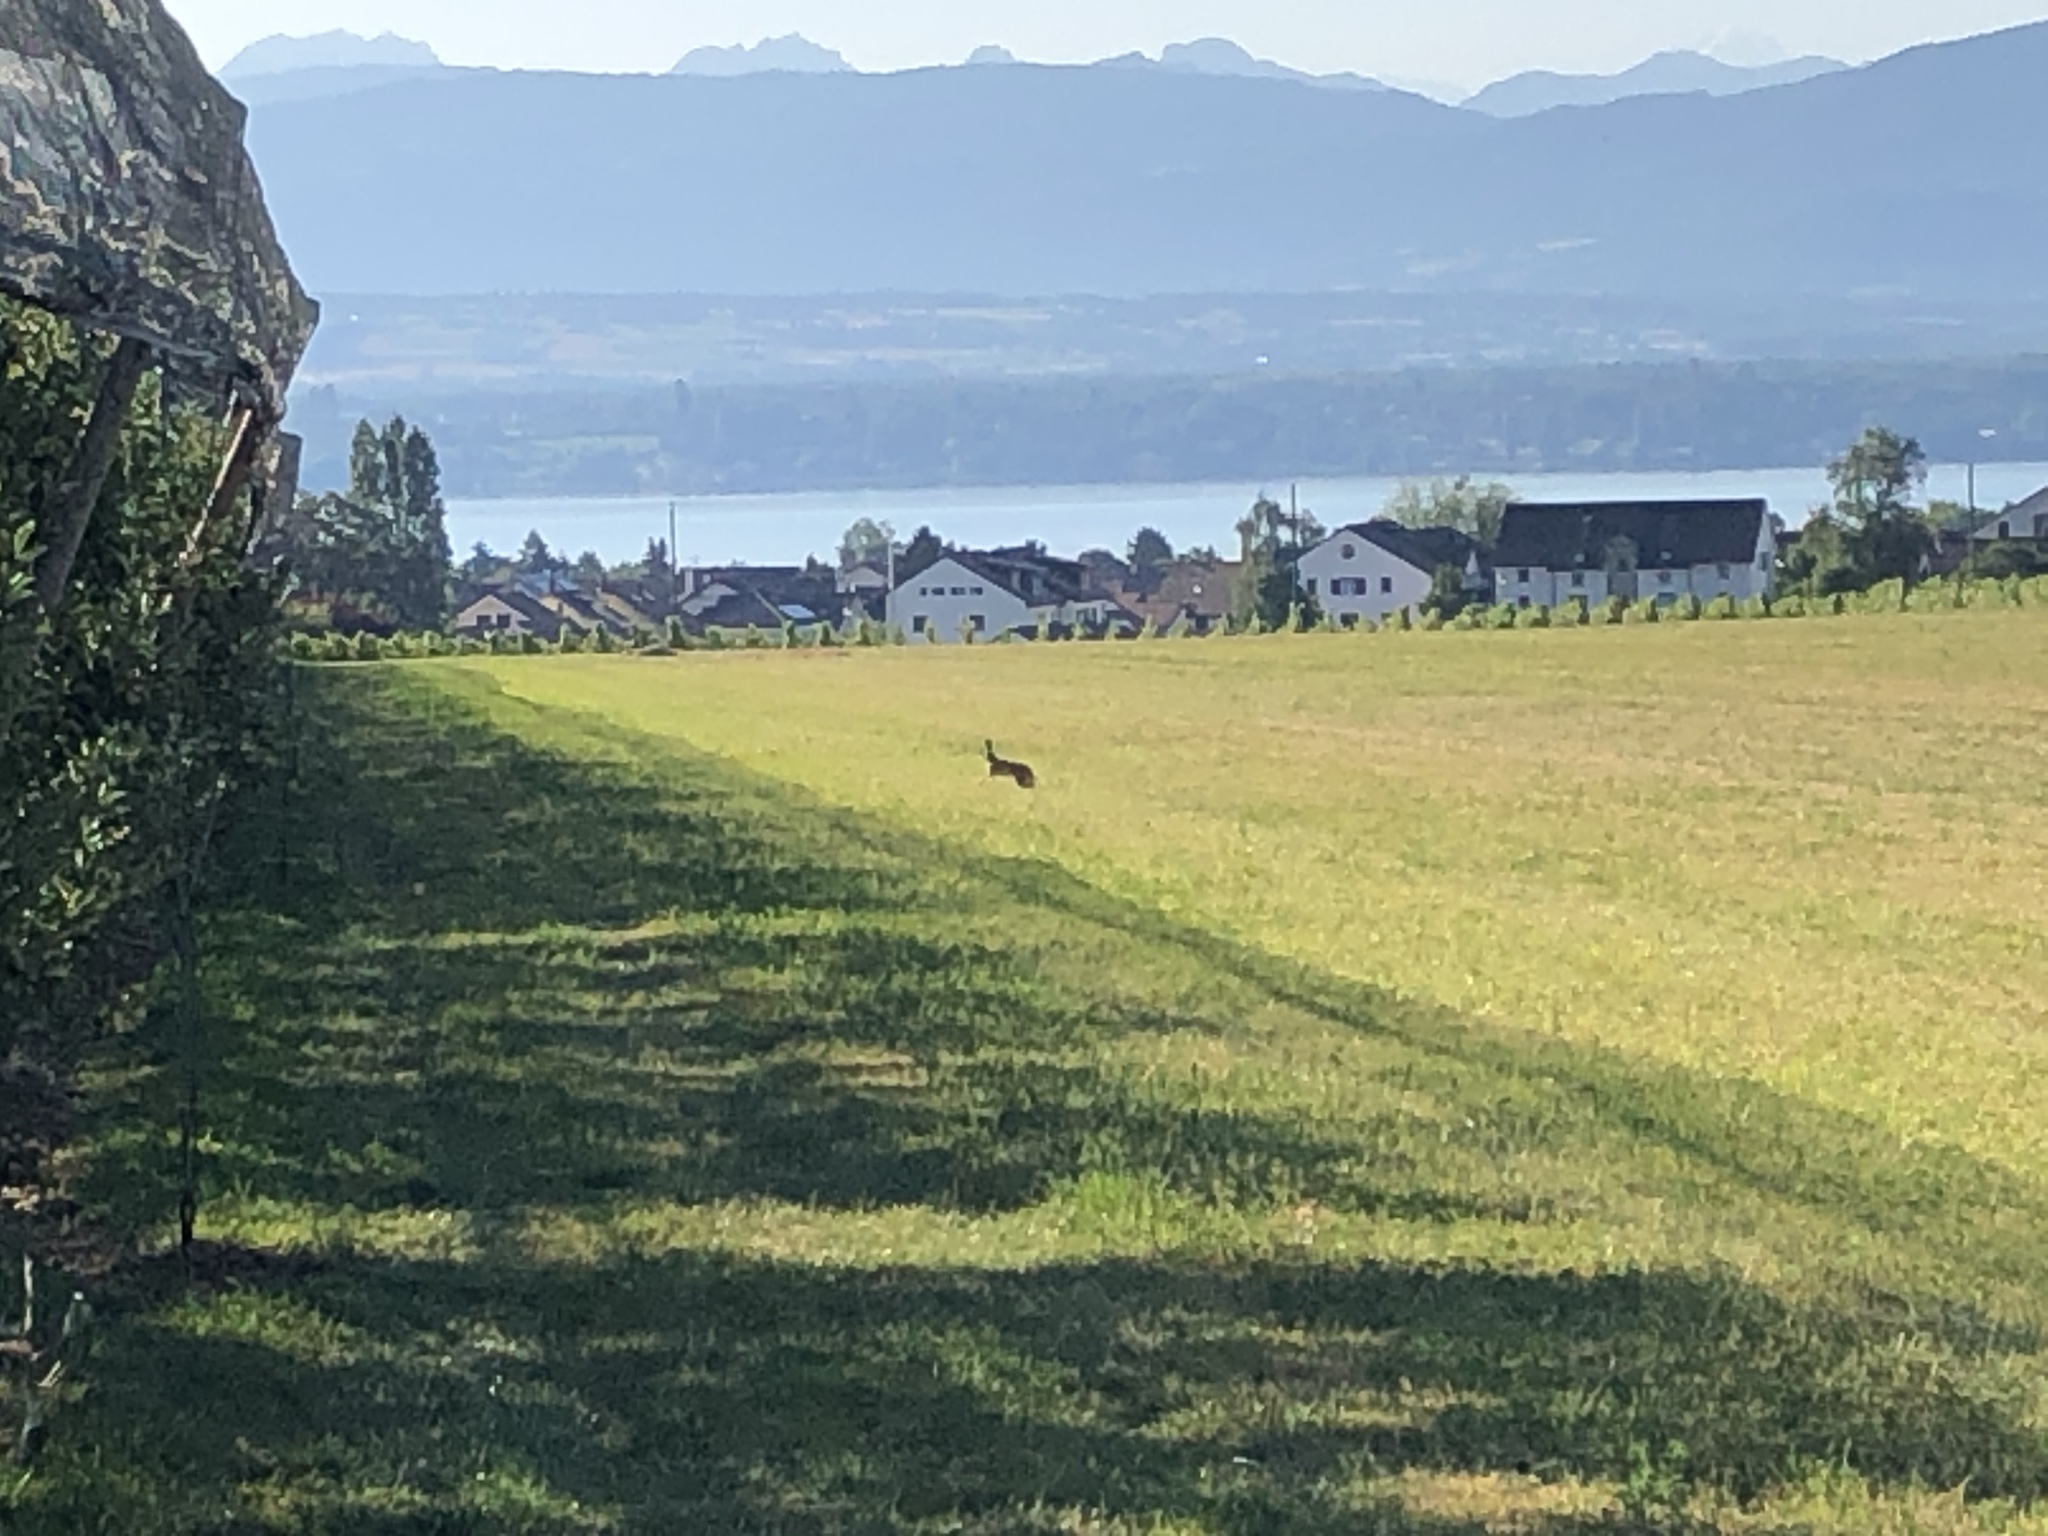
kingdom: Animalia
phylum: Chordata
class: Mammalia
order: Lagomorpha
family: Leporidae
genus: Lepus
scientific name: Lepus europaeus
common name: European hare
